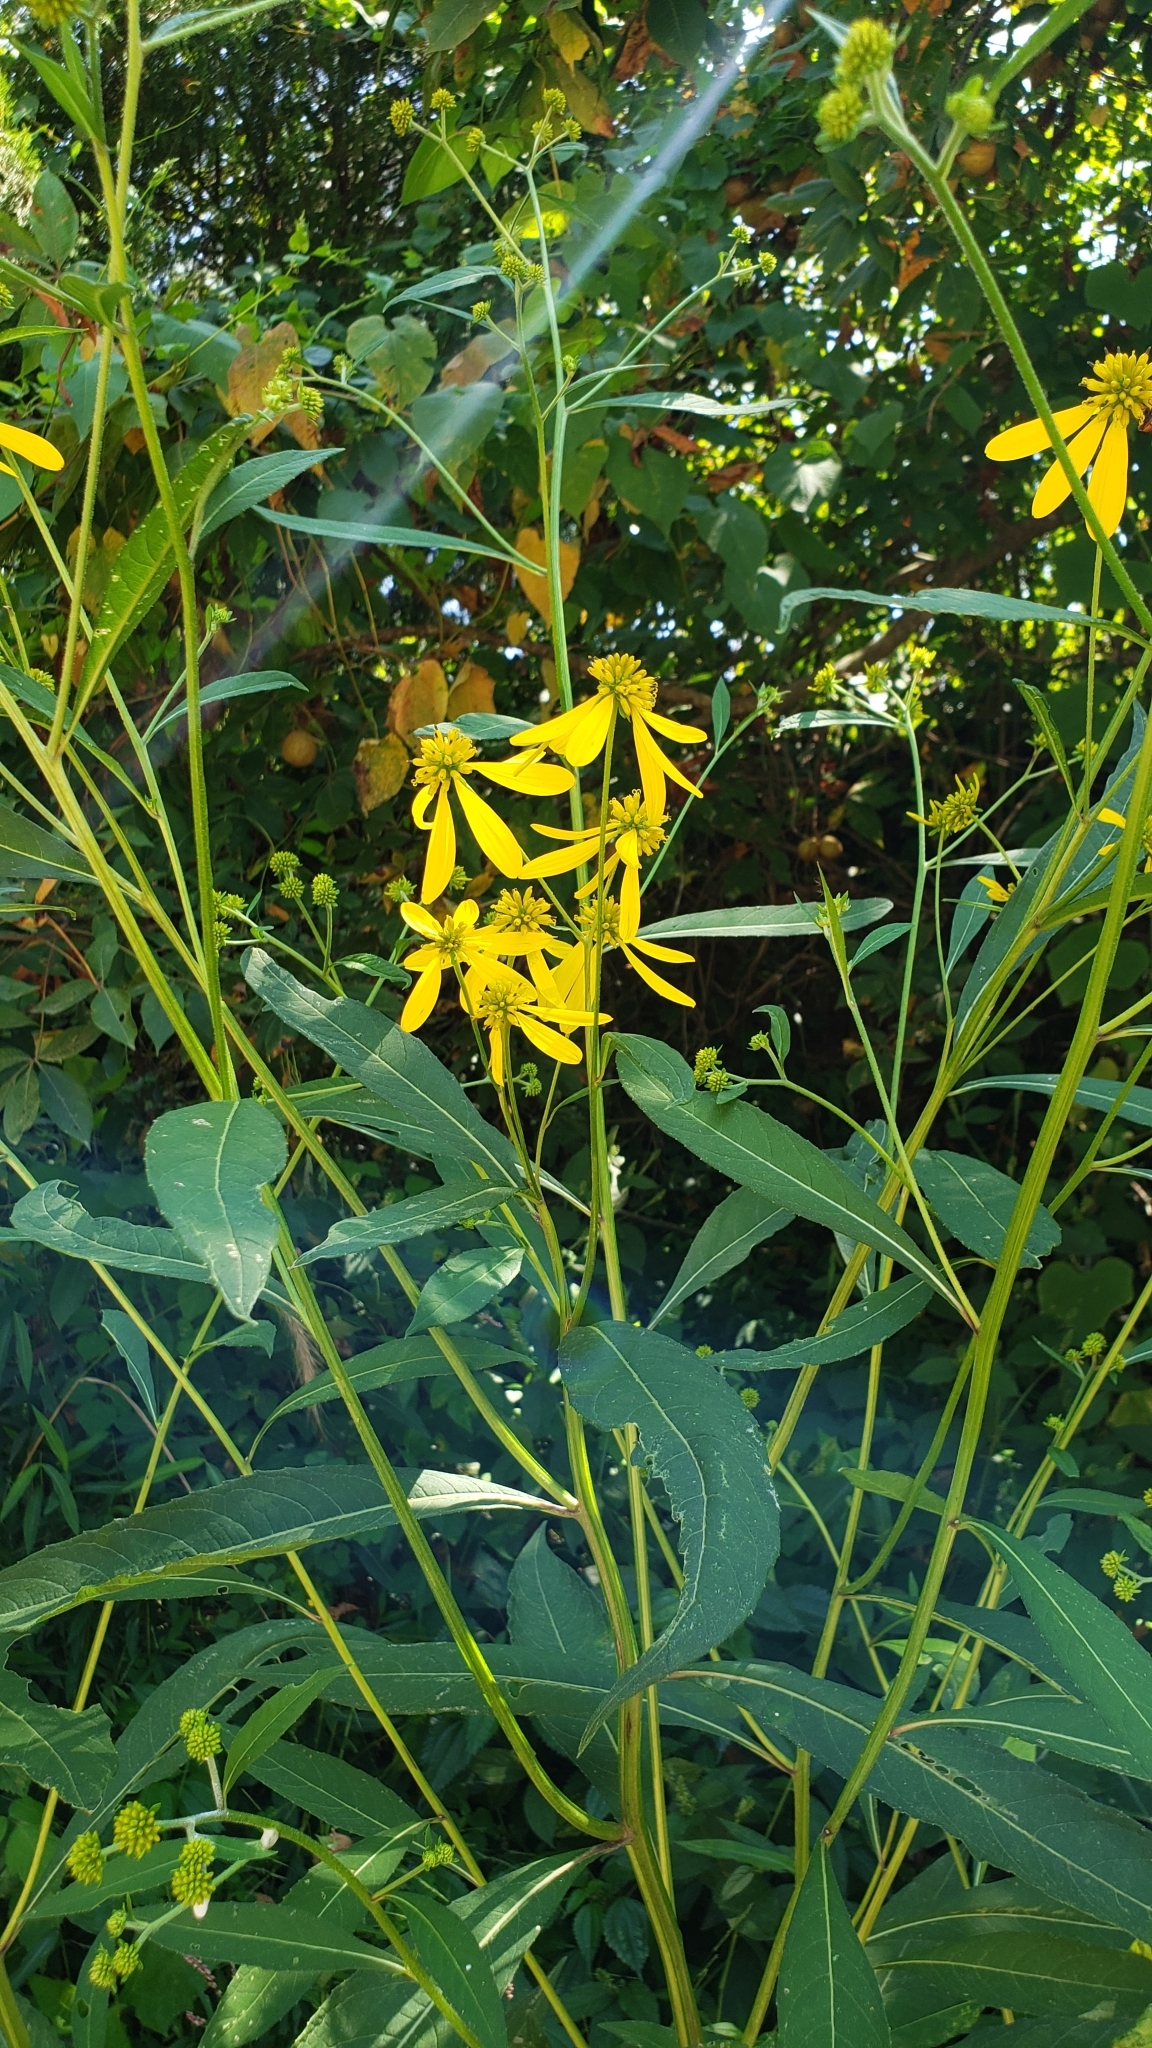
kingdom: Plantae
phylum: Tracheophyta
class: Magnoliopsida
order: Asterales
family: Asteraceae
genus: Verbesina
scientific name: Verbesina alternifolia
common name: Wingstem
